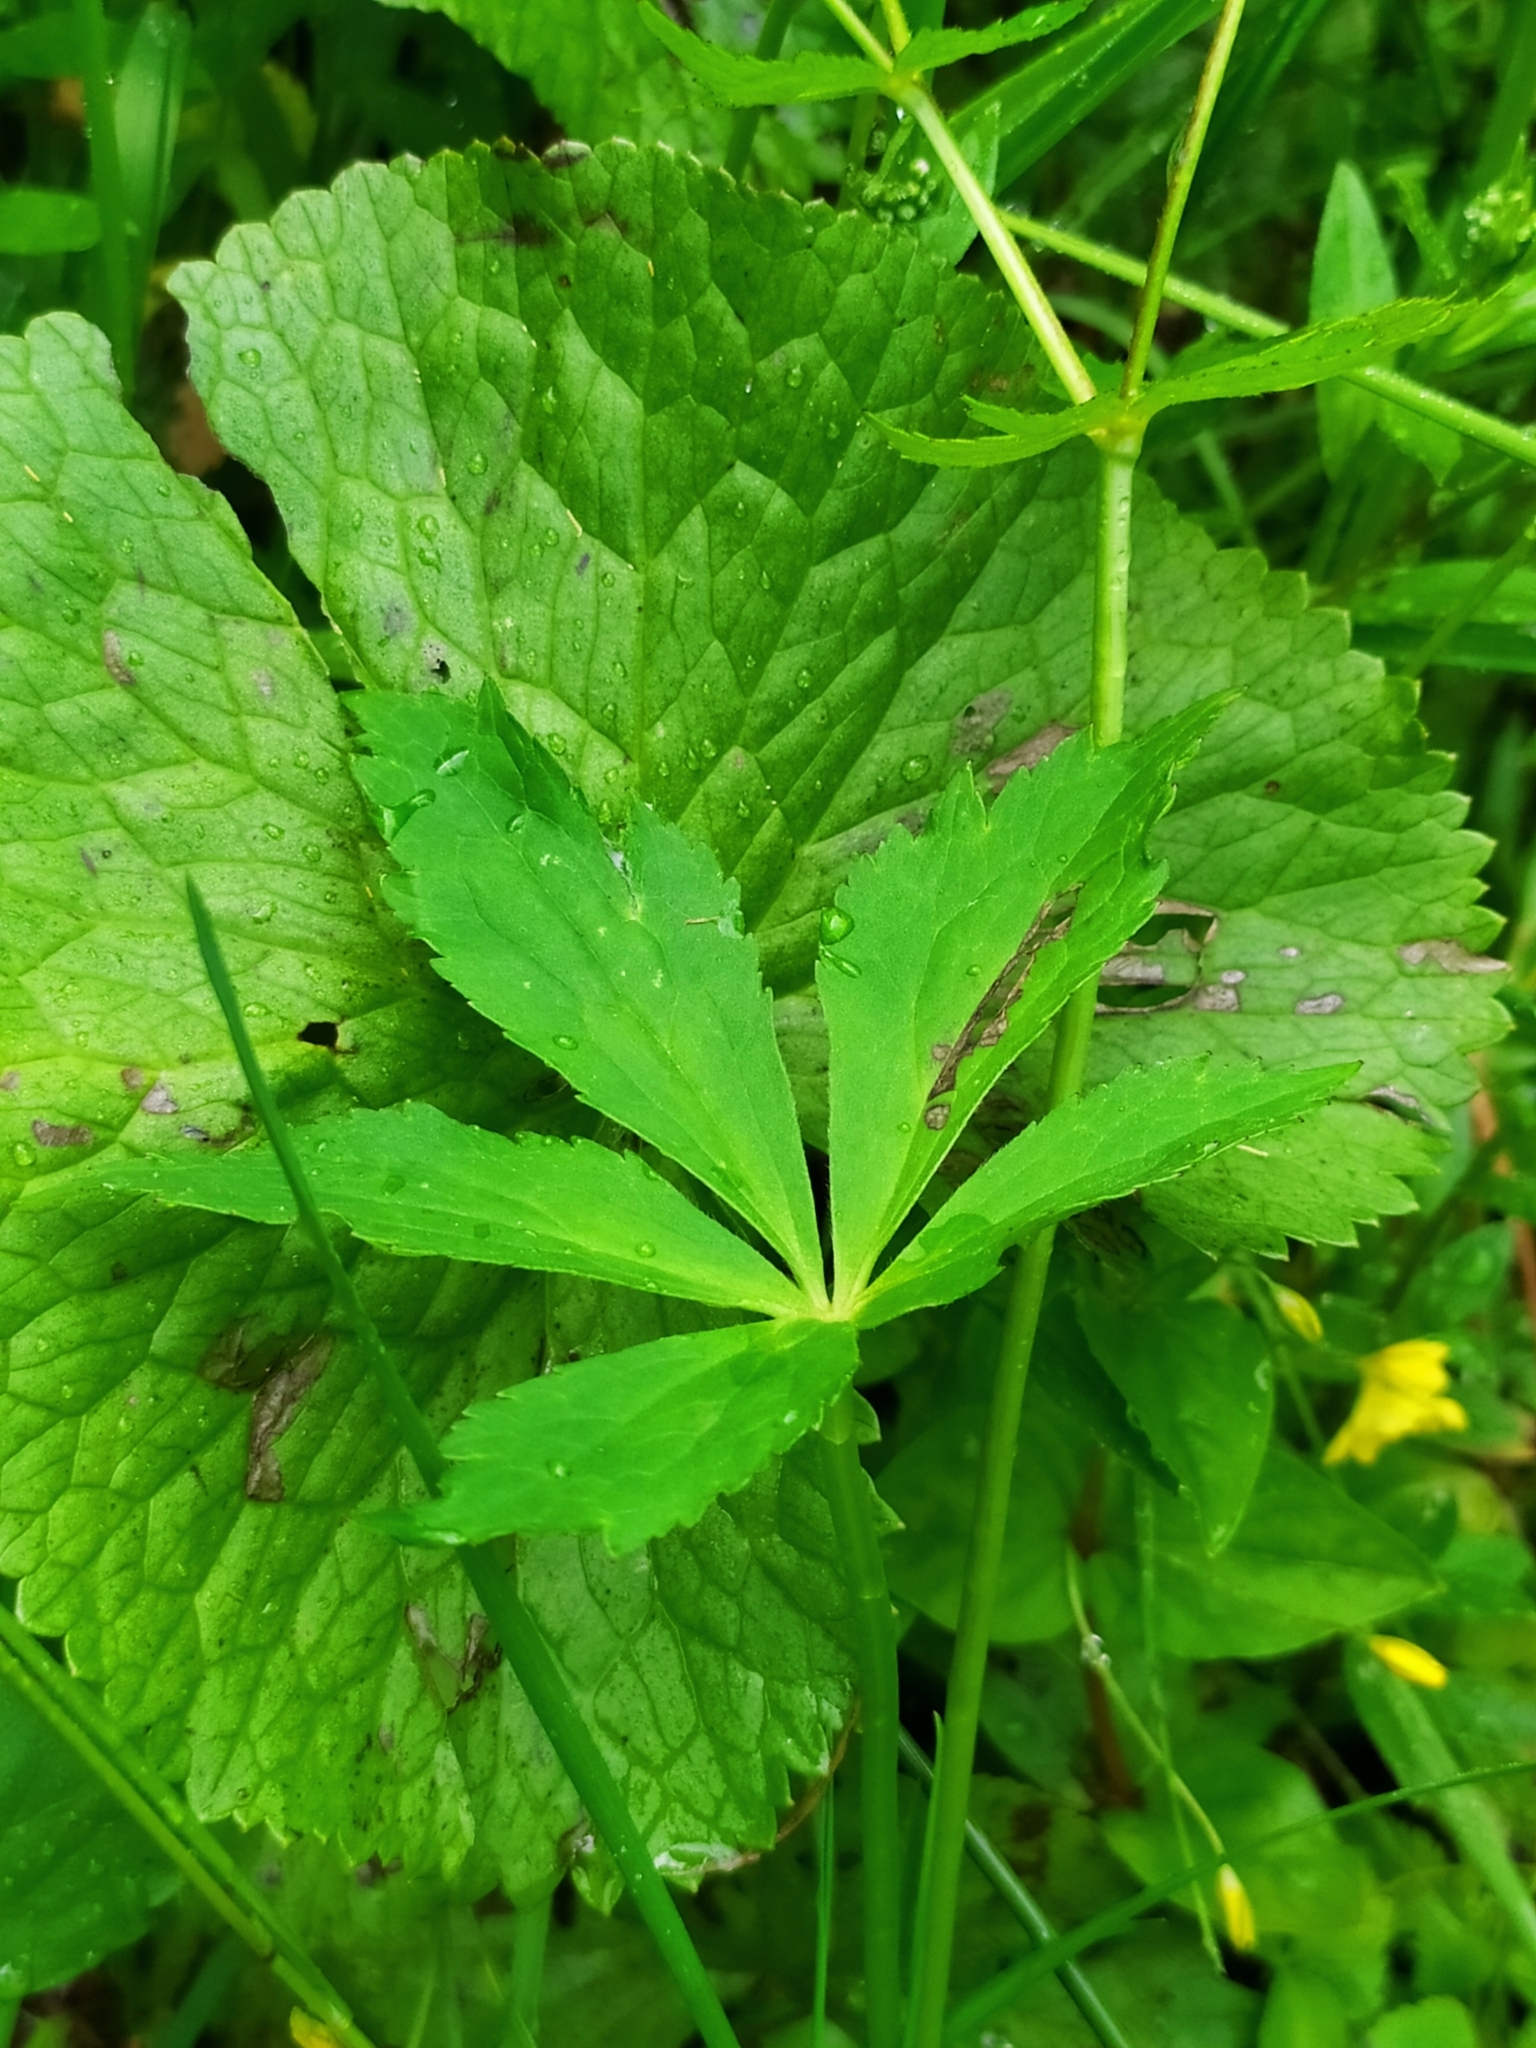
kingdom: Plantae
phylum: Tracheophyta
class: Magnoliopsida
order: Ranunculales
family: Ranunculaceae
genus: Ranunculus
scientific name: Ranunculus aconitifolius
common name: Aconite-leaved buttercup
